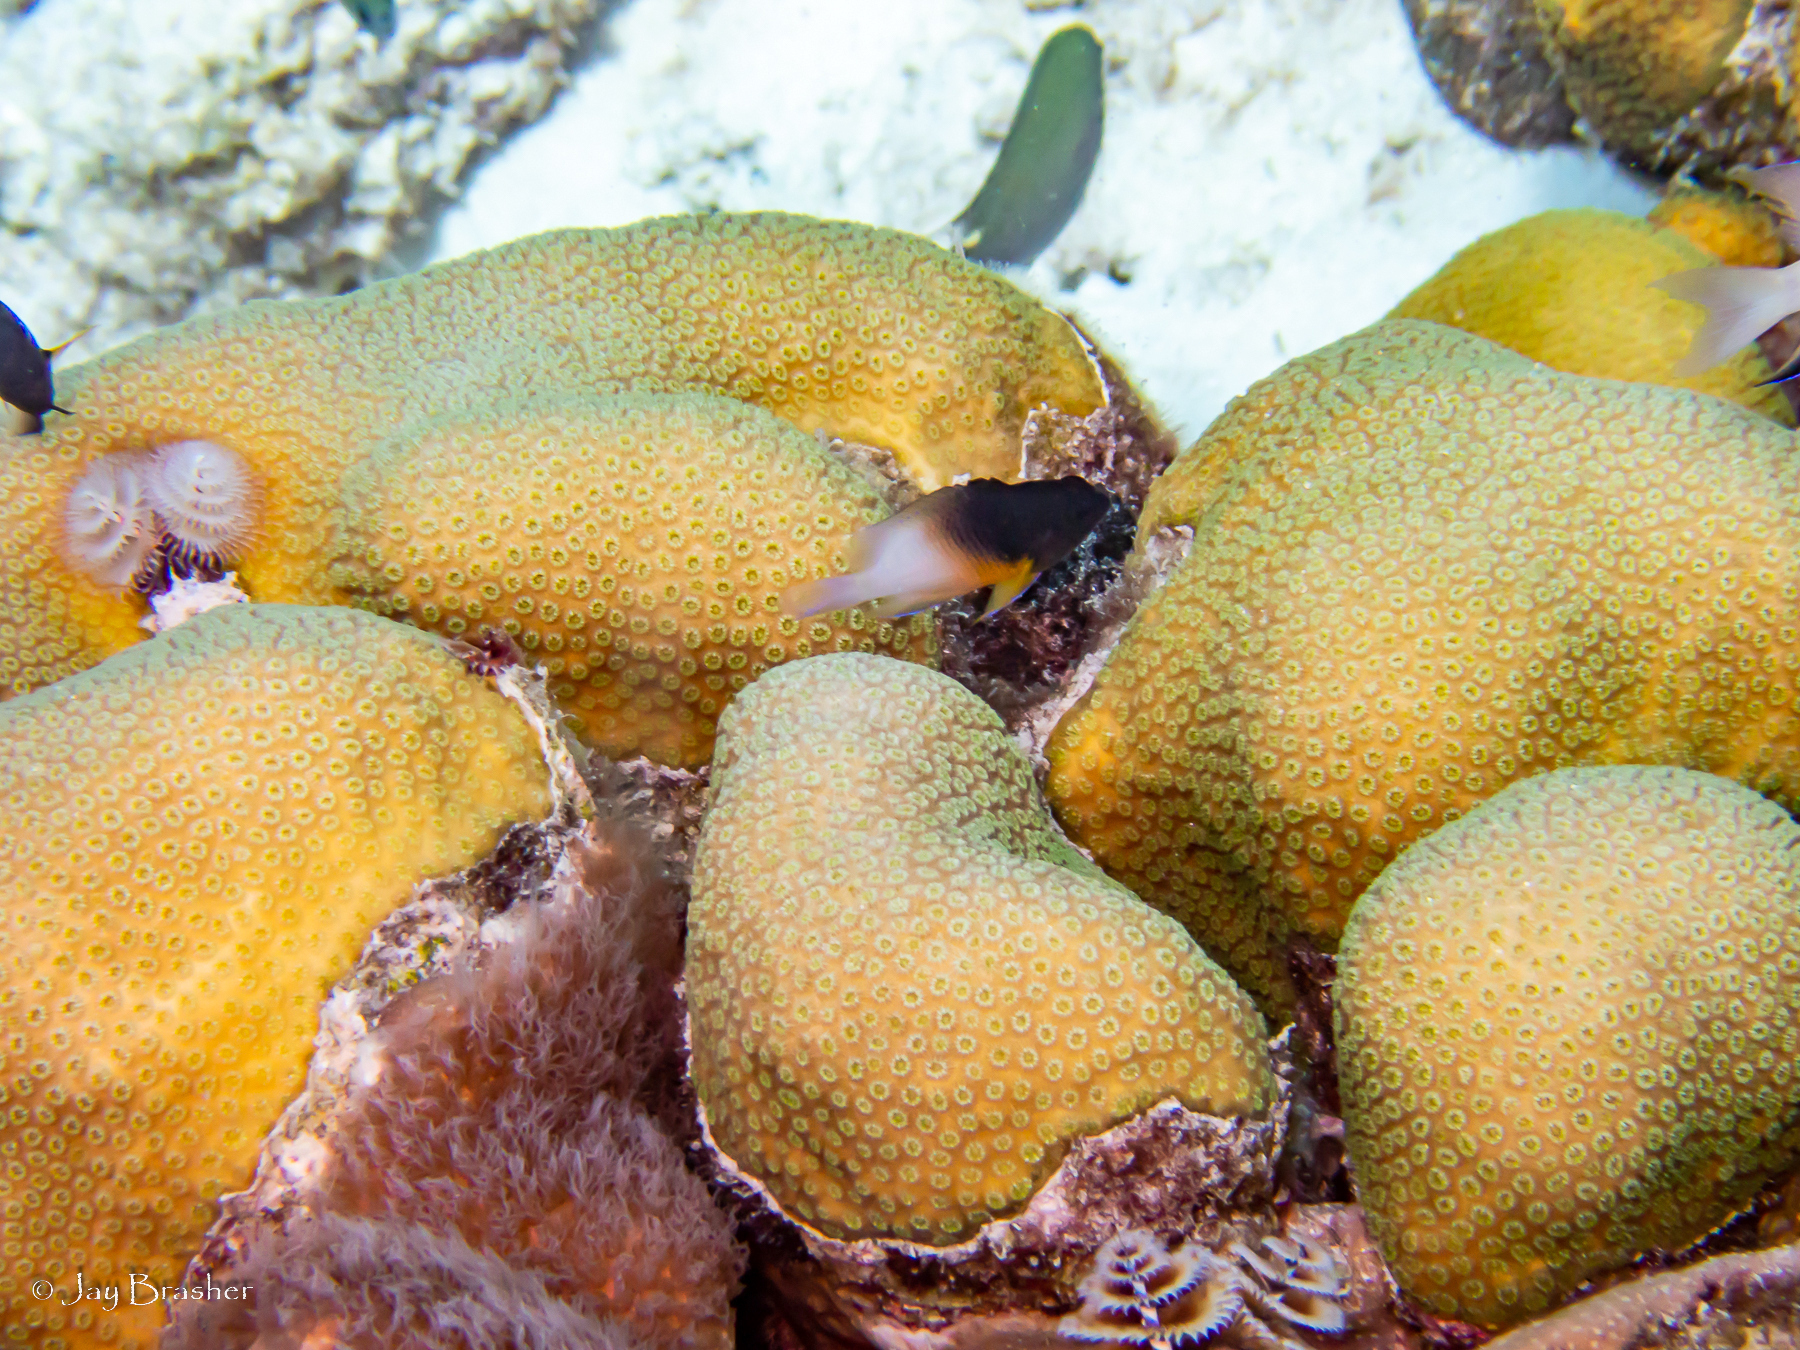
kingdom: Animalia
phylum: Chordata
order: Perciformes
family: Pomacentridae
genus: Stegastes
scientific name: Stegastes partitus
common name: Bicolor damselfish
